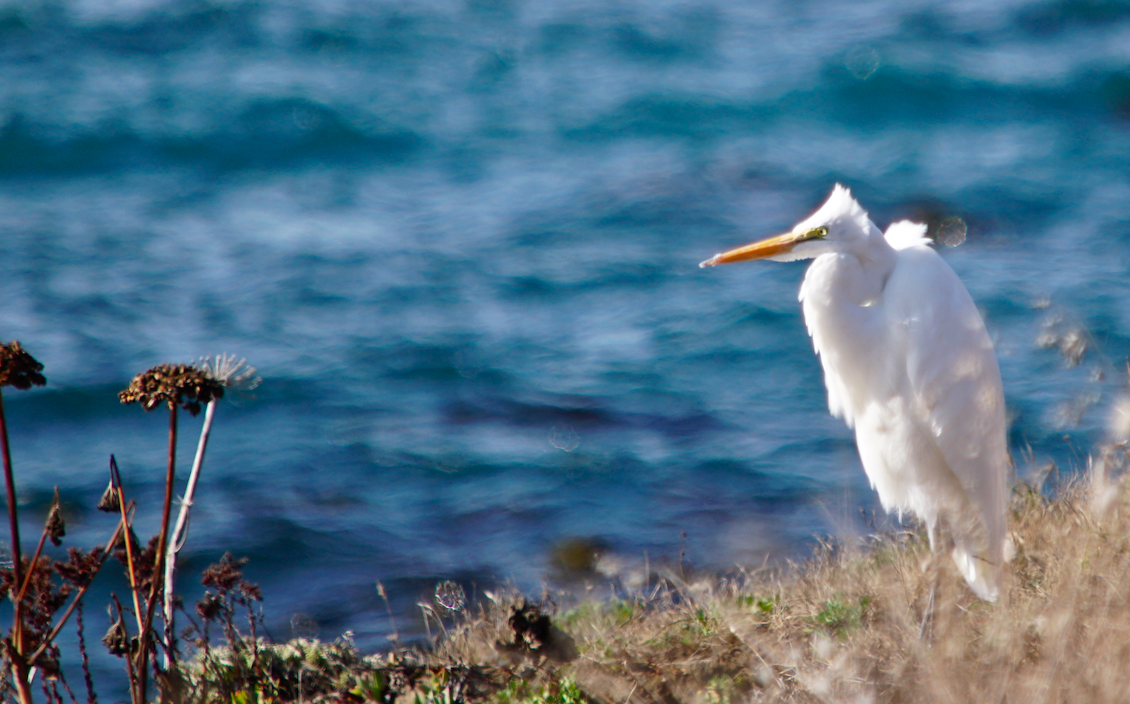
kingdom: Animalia
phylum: Chordata
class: Aves
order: Pelecaniformes
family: Ardeidae
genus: Ardea
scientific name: Ardea alba
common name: Great egret
